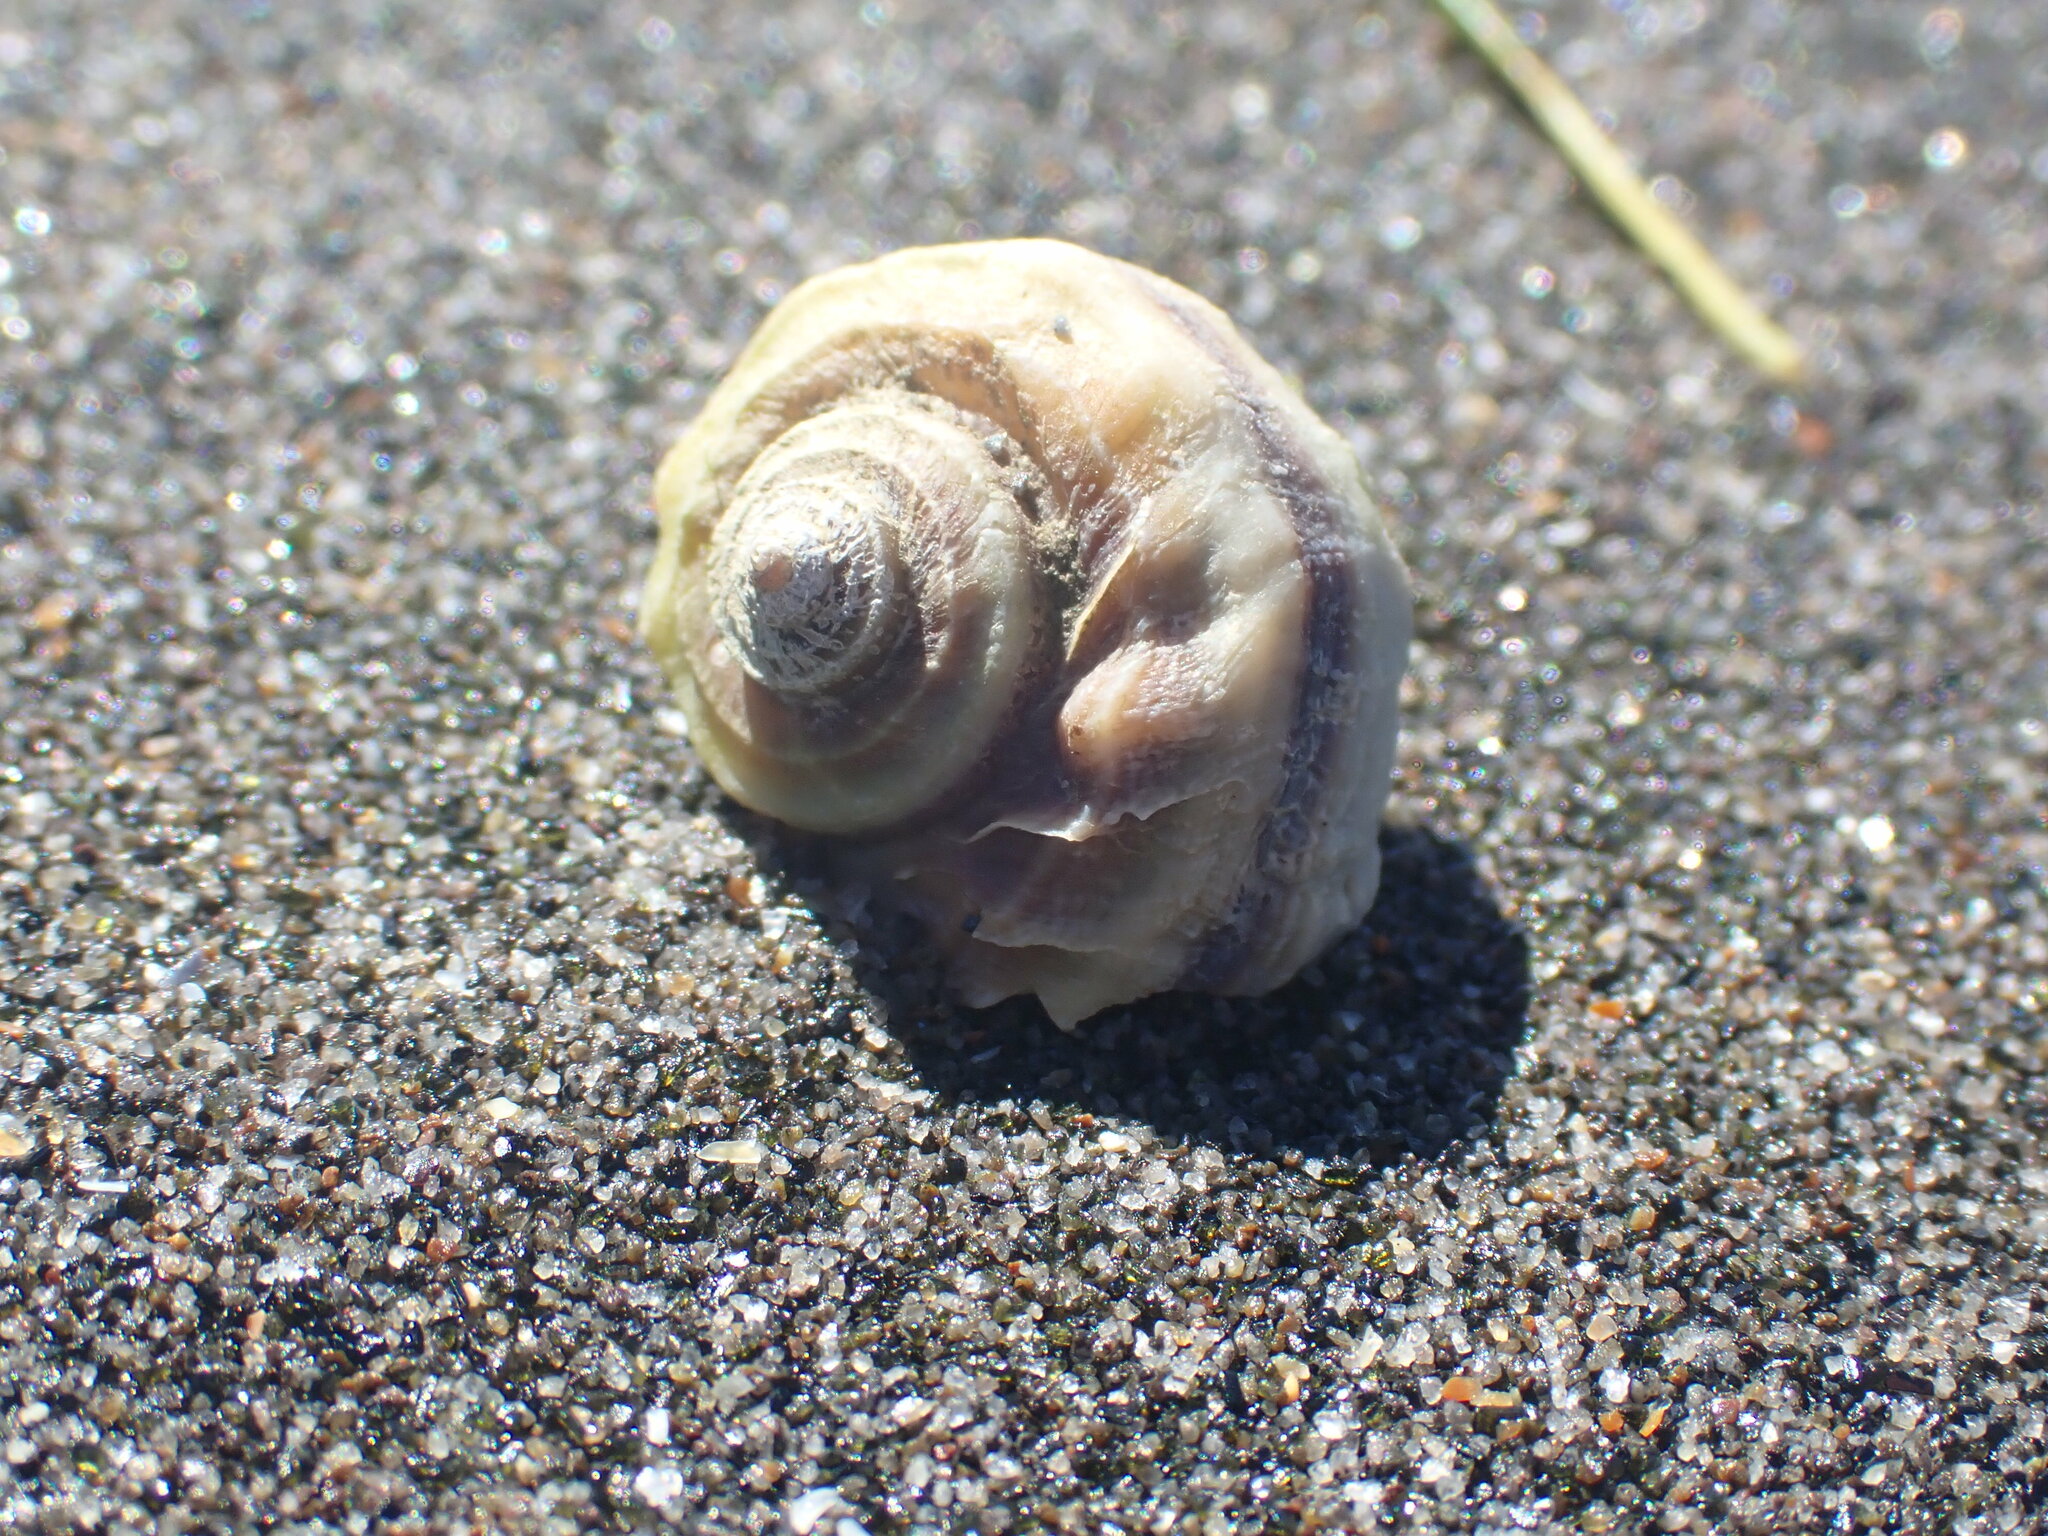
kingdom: Animalia
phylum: Mollusca
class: Gastropoda
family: Amphibolidae
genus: Amphibola
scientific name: Amphibola crenata
